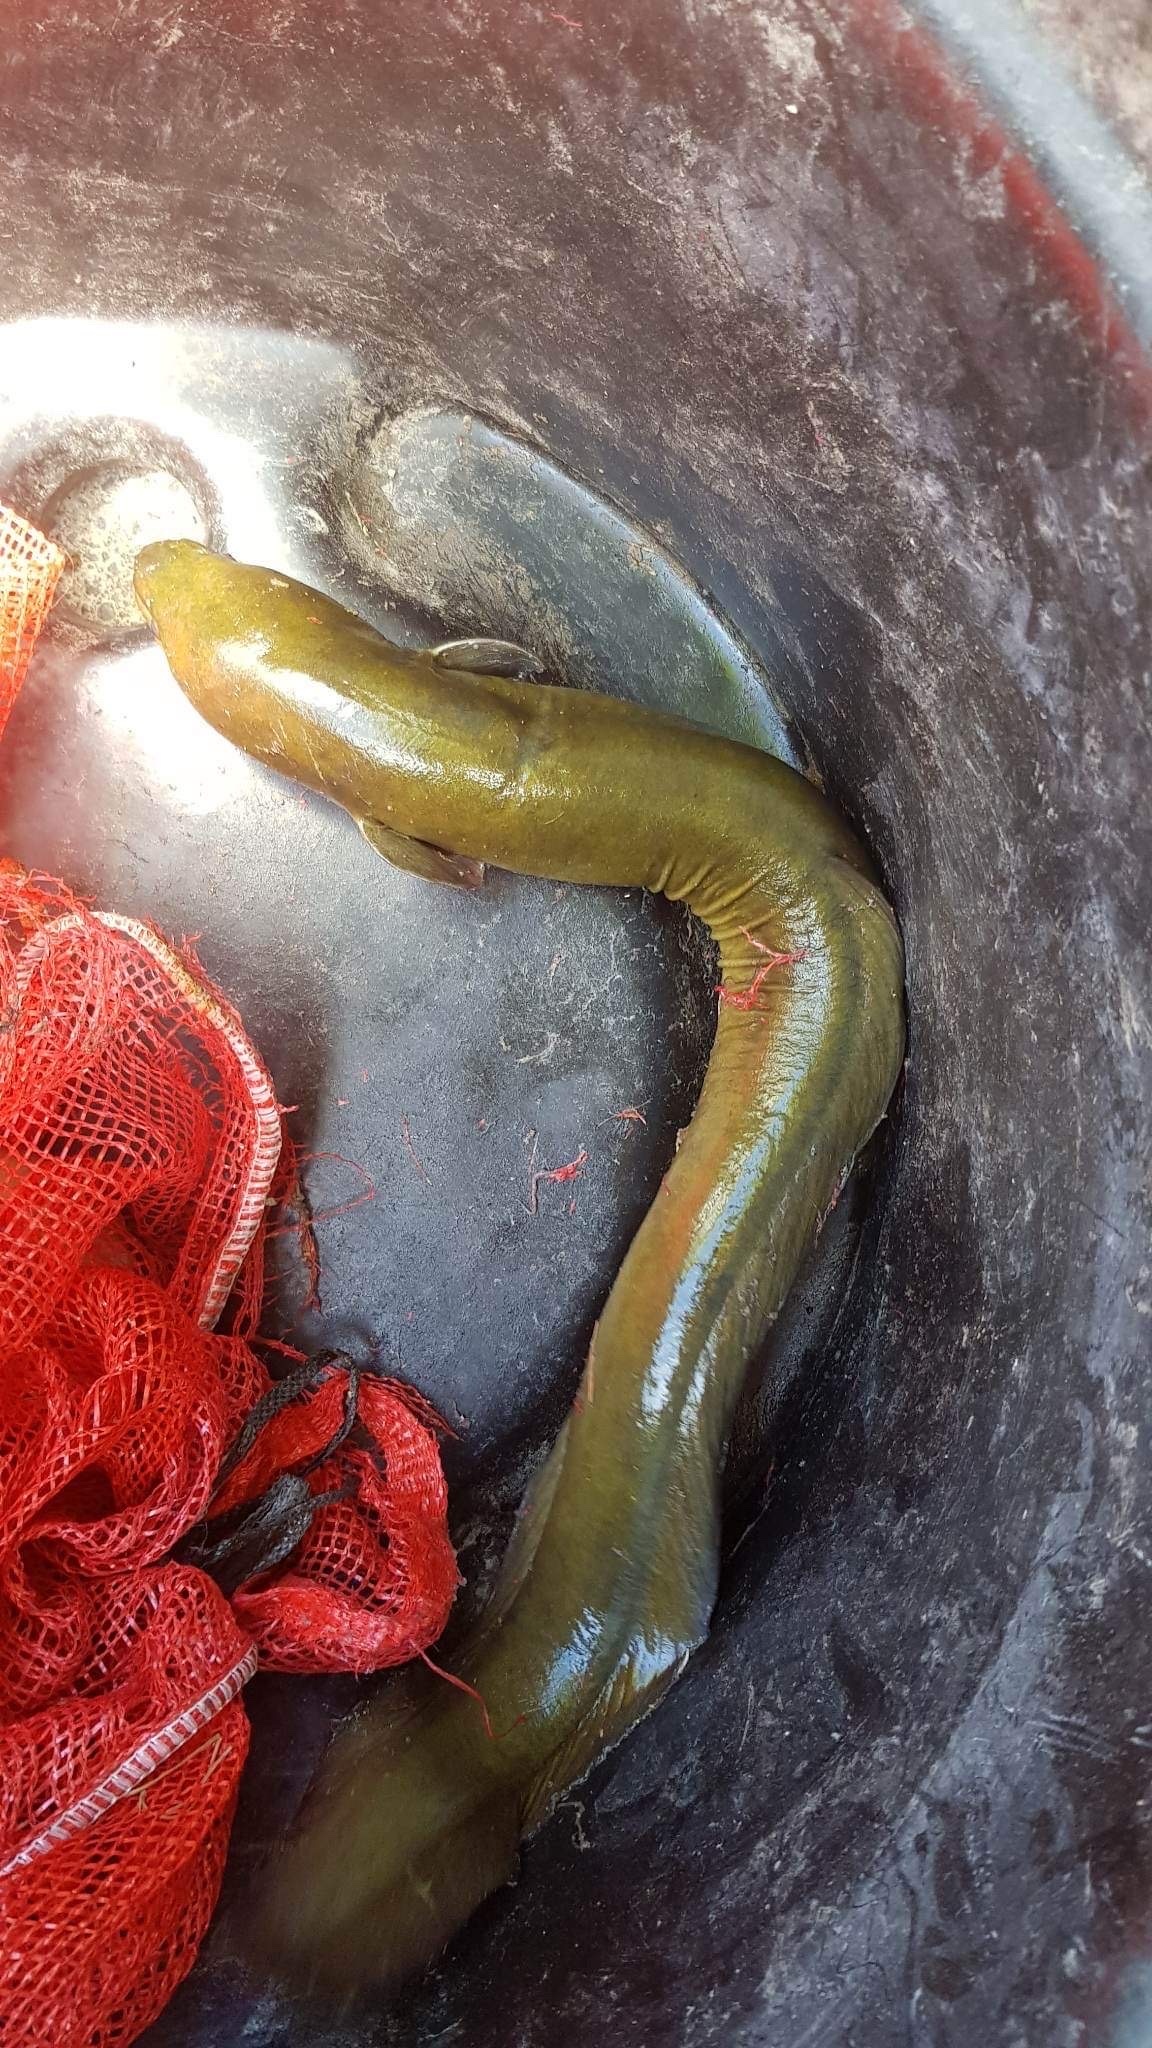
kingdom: Animalia
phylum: Chordata
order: Anguilliformes
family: Anguillidae
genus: Anguilla
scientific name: Anguilla dieffenbachii
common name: New zealand longfin eel
